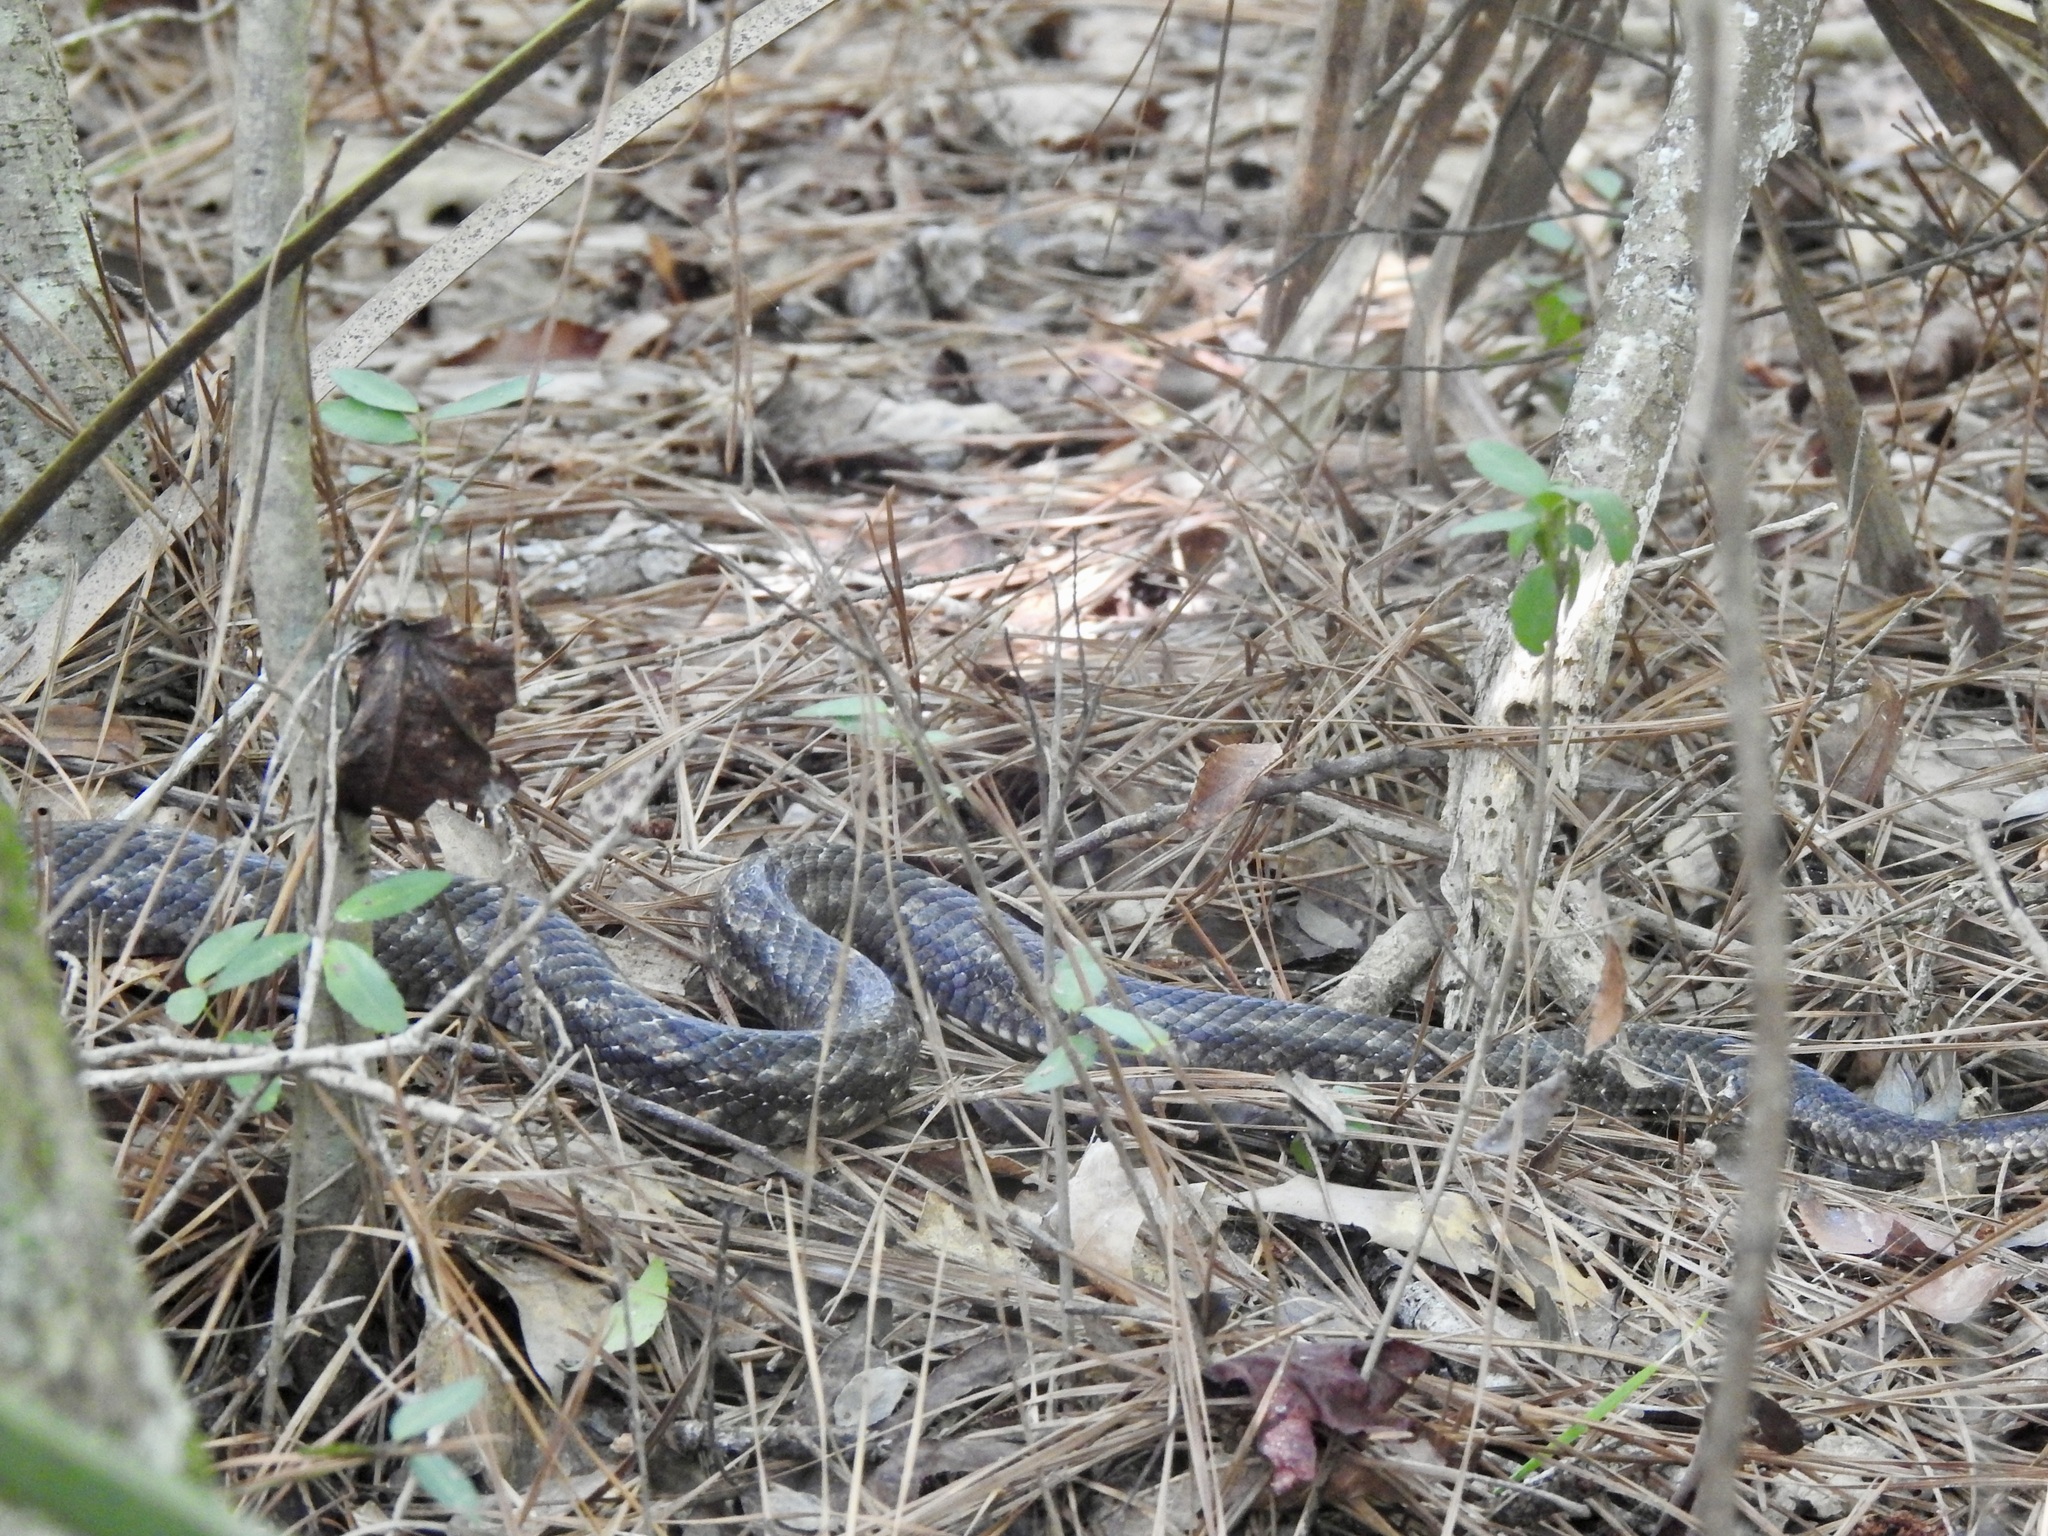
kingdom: Animalia
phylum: Chordata
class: Squamata
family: Colubridae
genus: Pantherophis
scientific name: Pantherophis obsoletus
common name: Black rat snake
